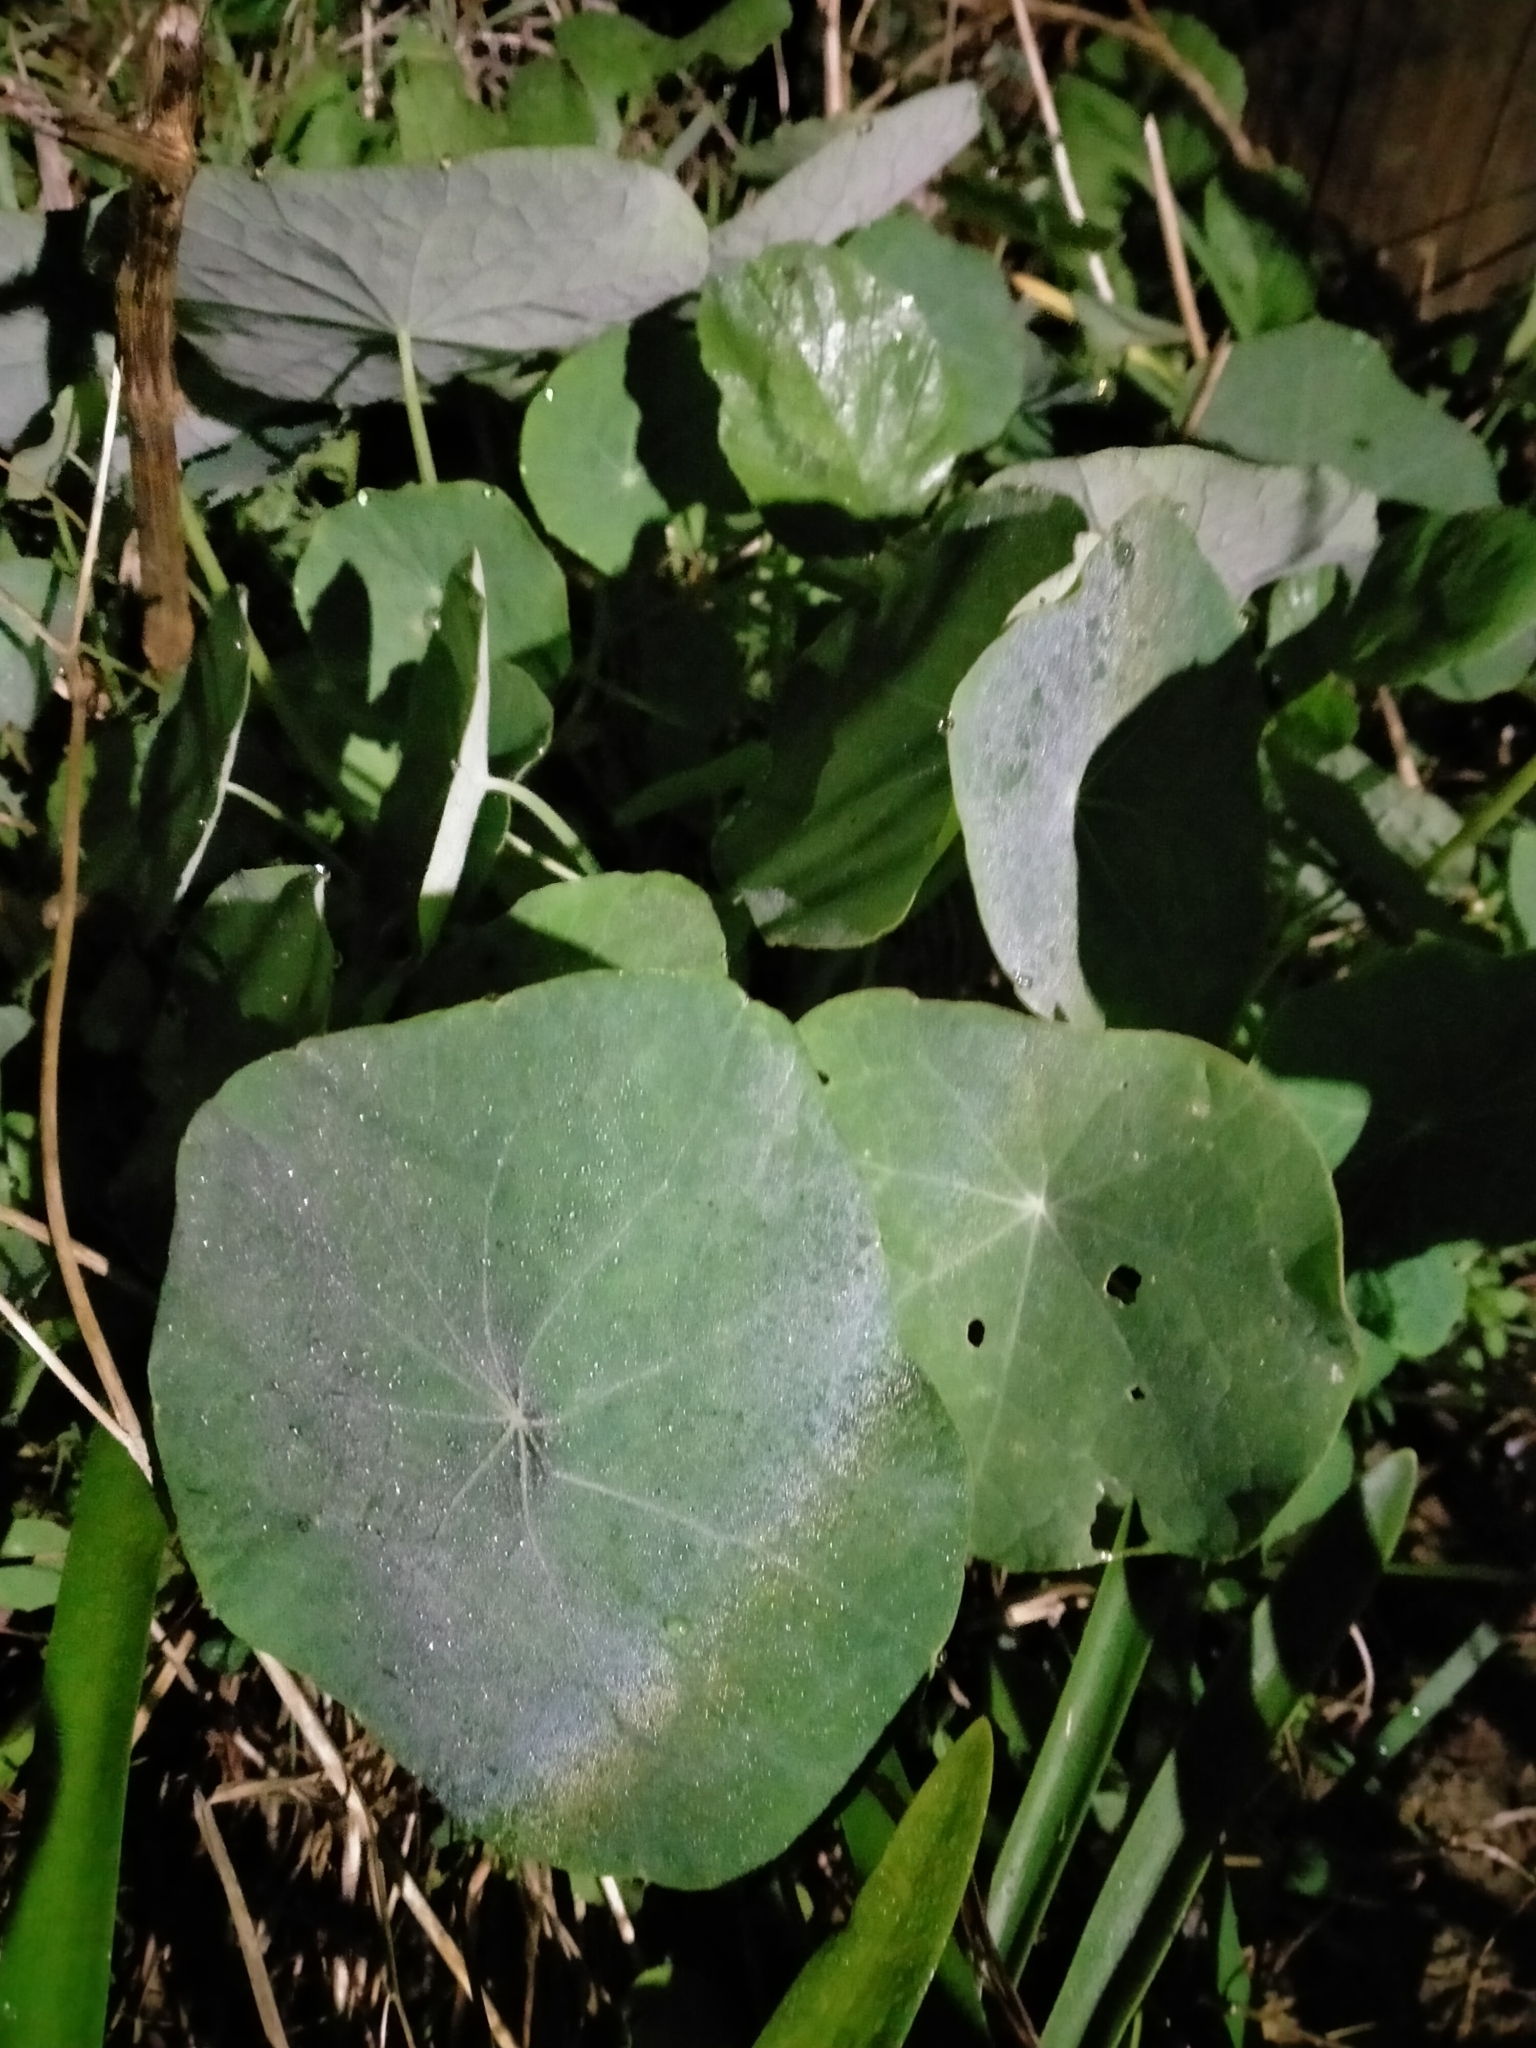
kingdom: Plantae
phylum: Tracheophyta
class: Magnoliopsida
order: Brassicales
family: Tropaeolaceae
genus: Tropaeolum
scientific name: Tropaeolum majus
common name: Nasturtium
